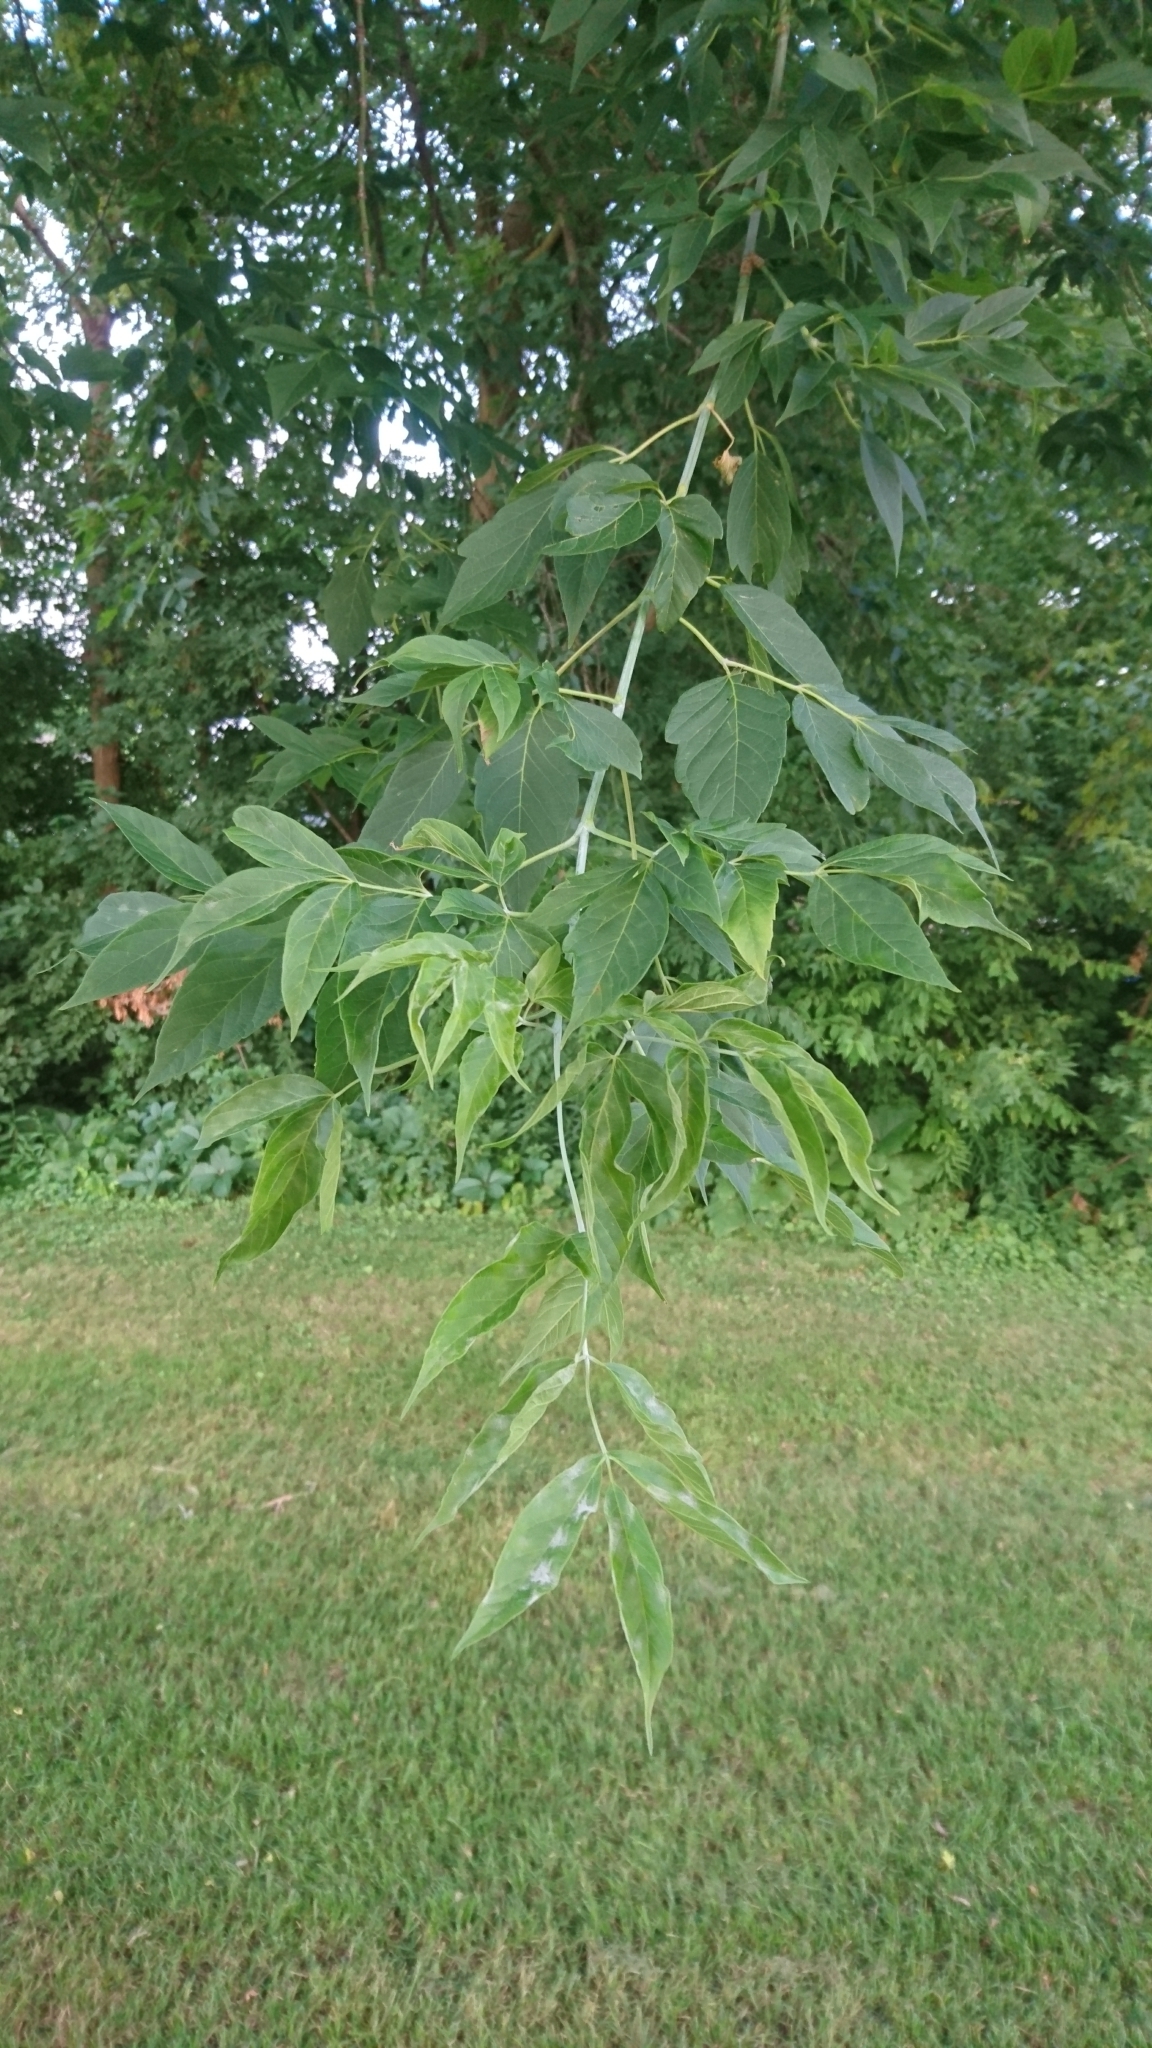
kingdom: Plantae
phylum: Tracheophyta
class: Magnoliopsida
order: Sapindales
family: Sapindaceae
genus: Acer
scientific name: Acer negundo
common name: Ashleaf maple
